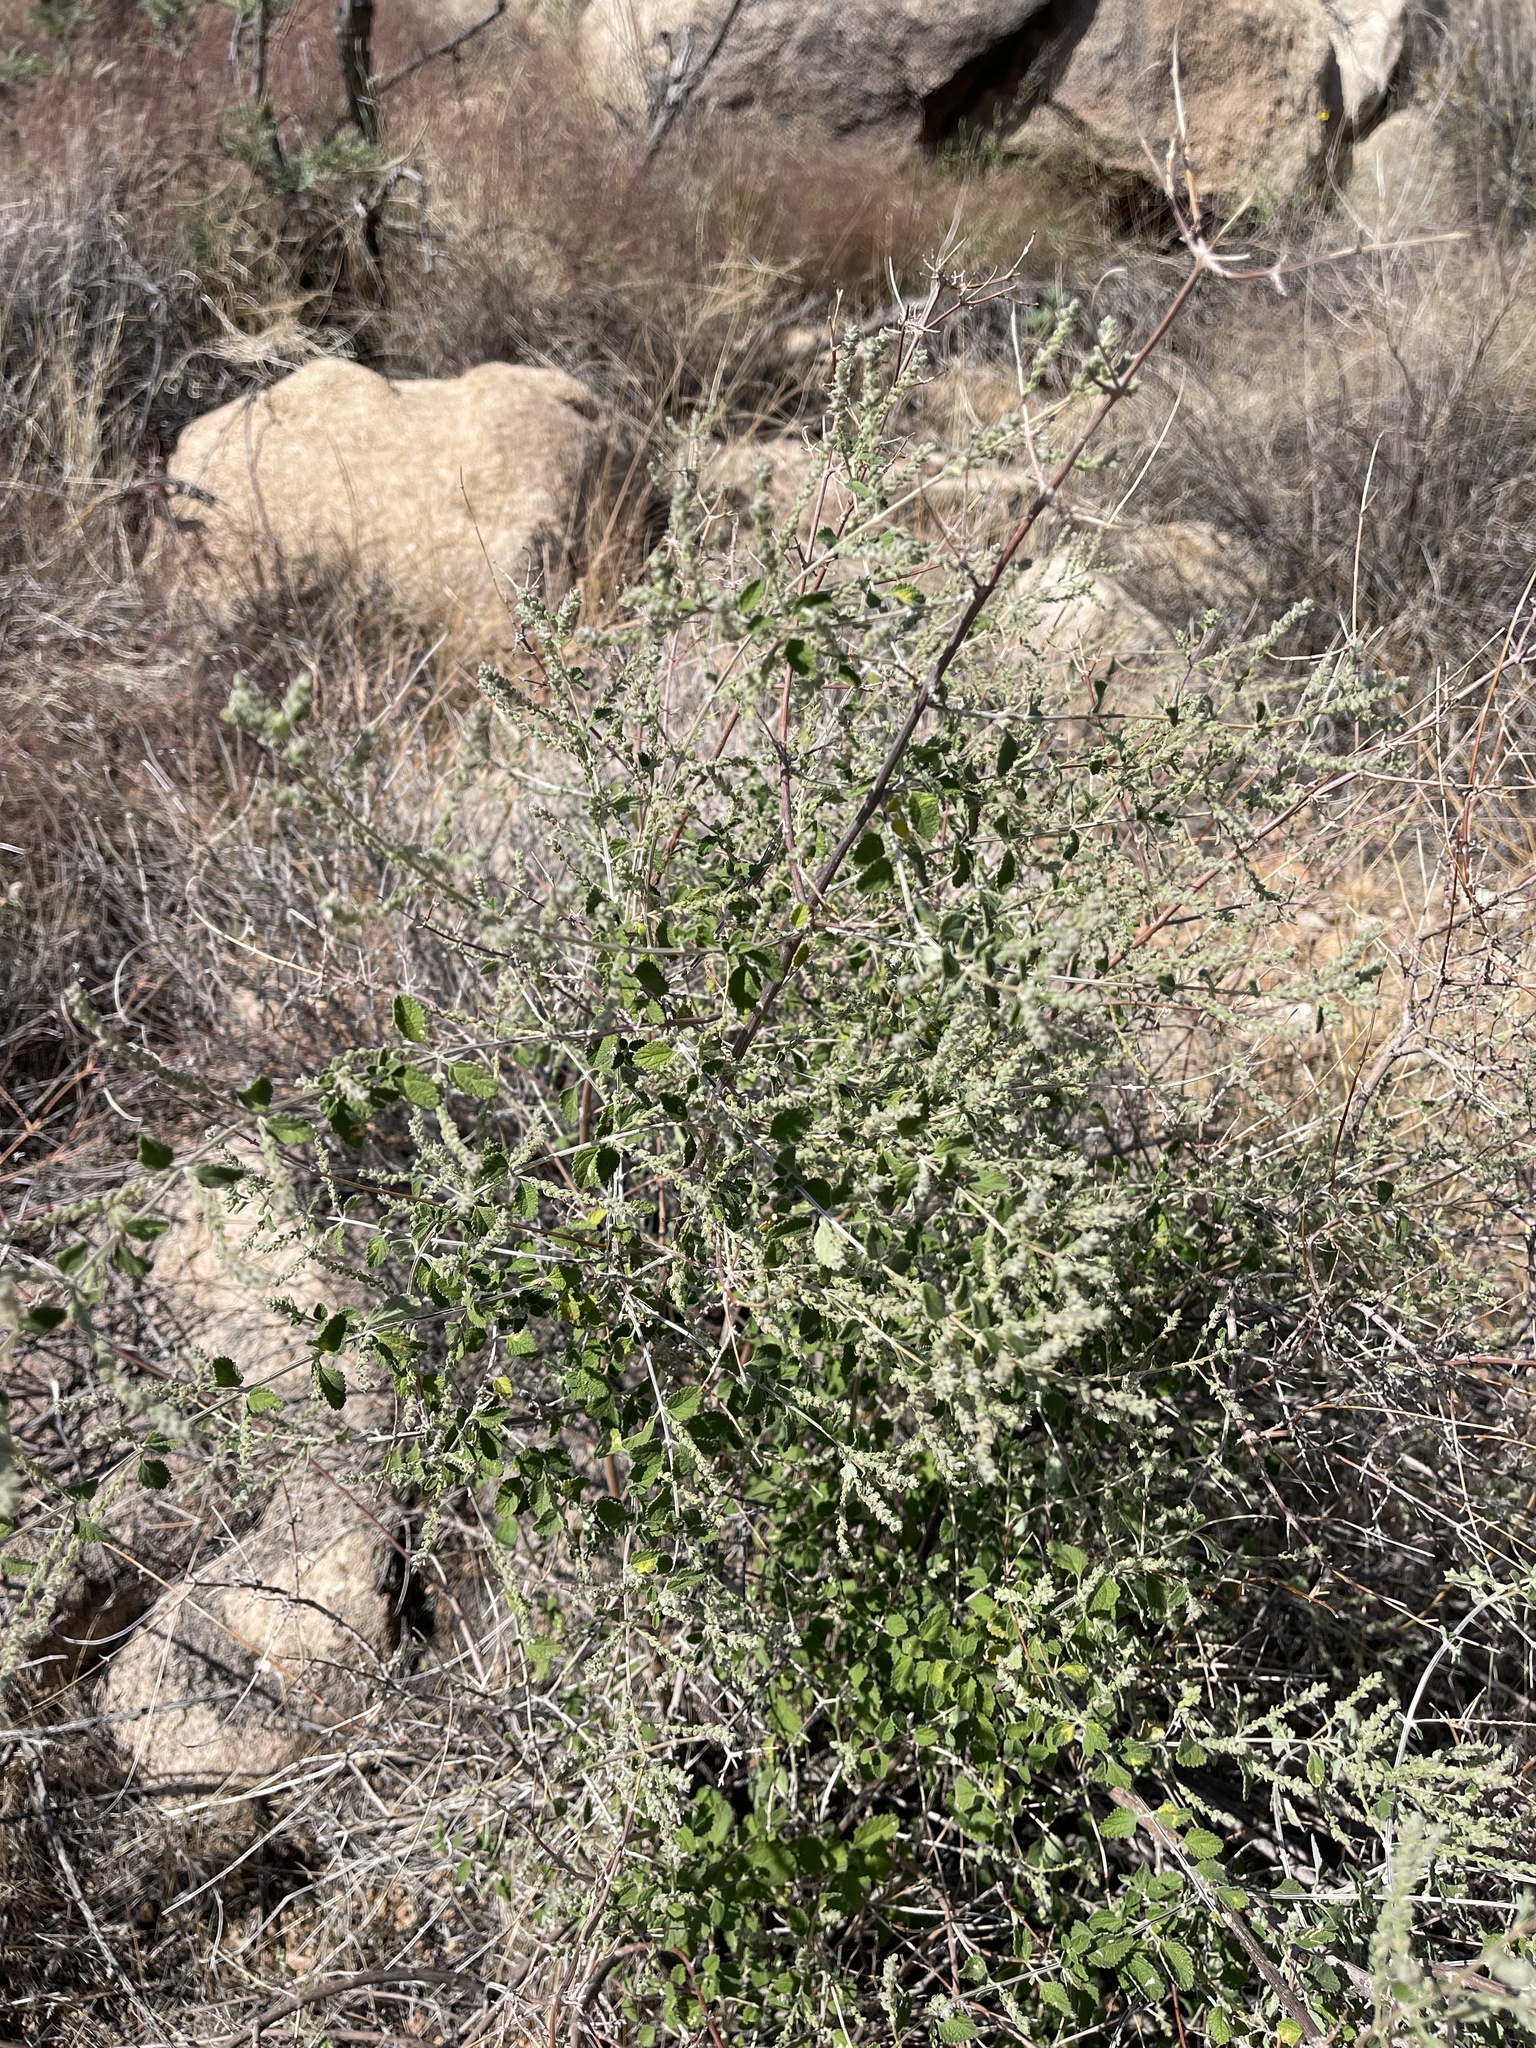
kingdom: Plantae
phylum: Tracheophyta
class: Magnoliopsida
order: Lamiales
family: Verbenaceae
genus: Aloysia
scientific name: Aloysia wrightii
